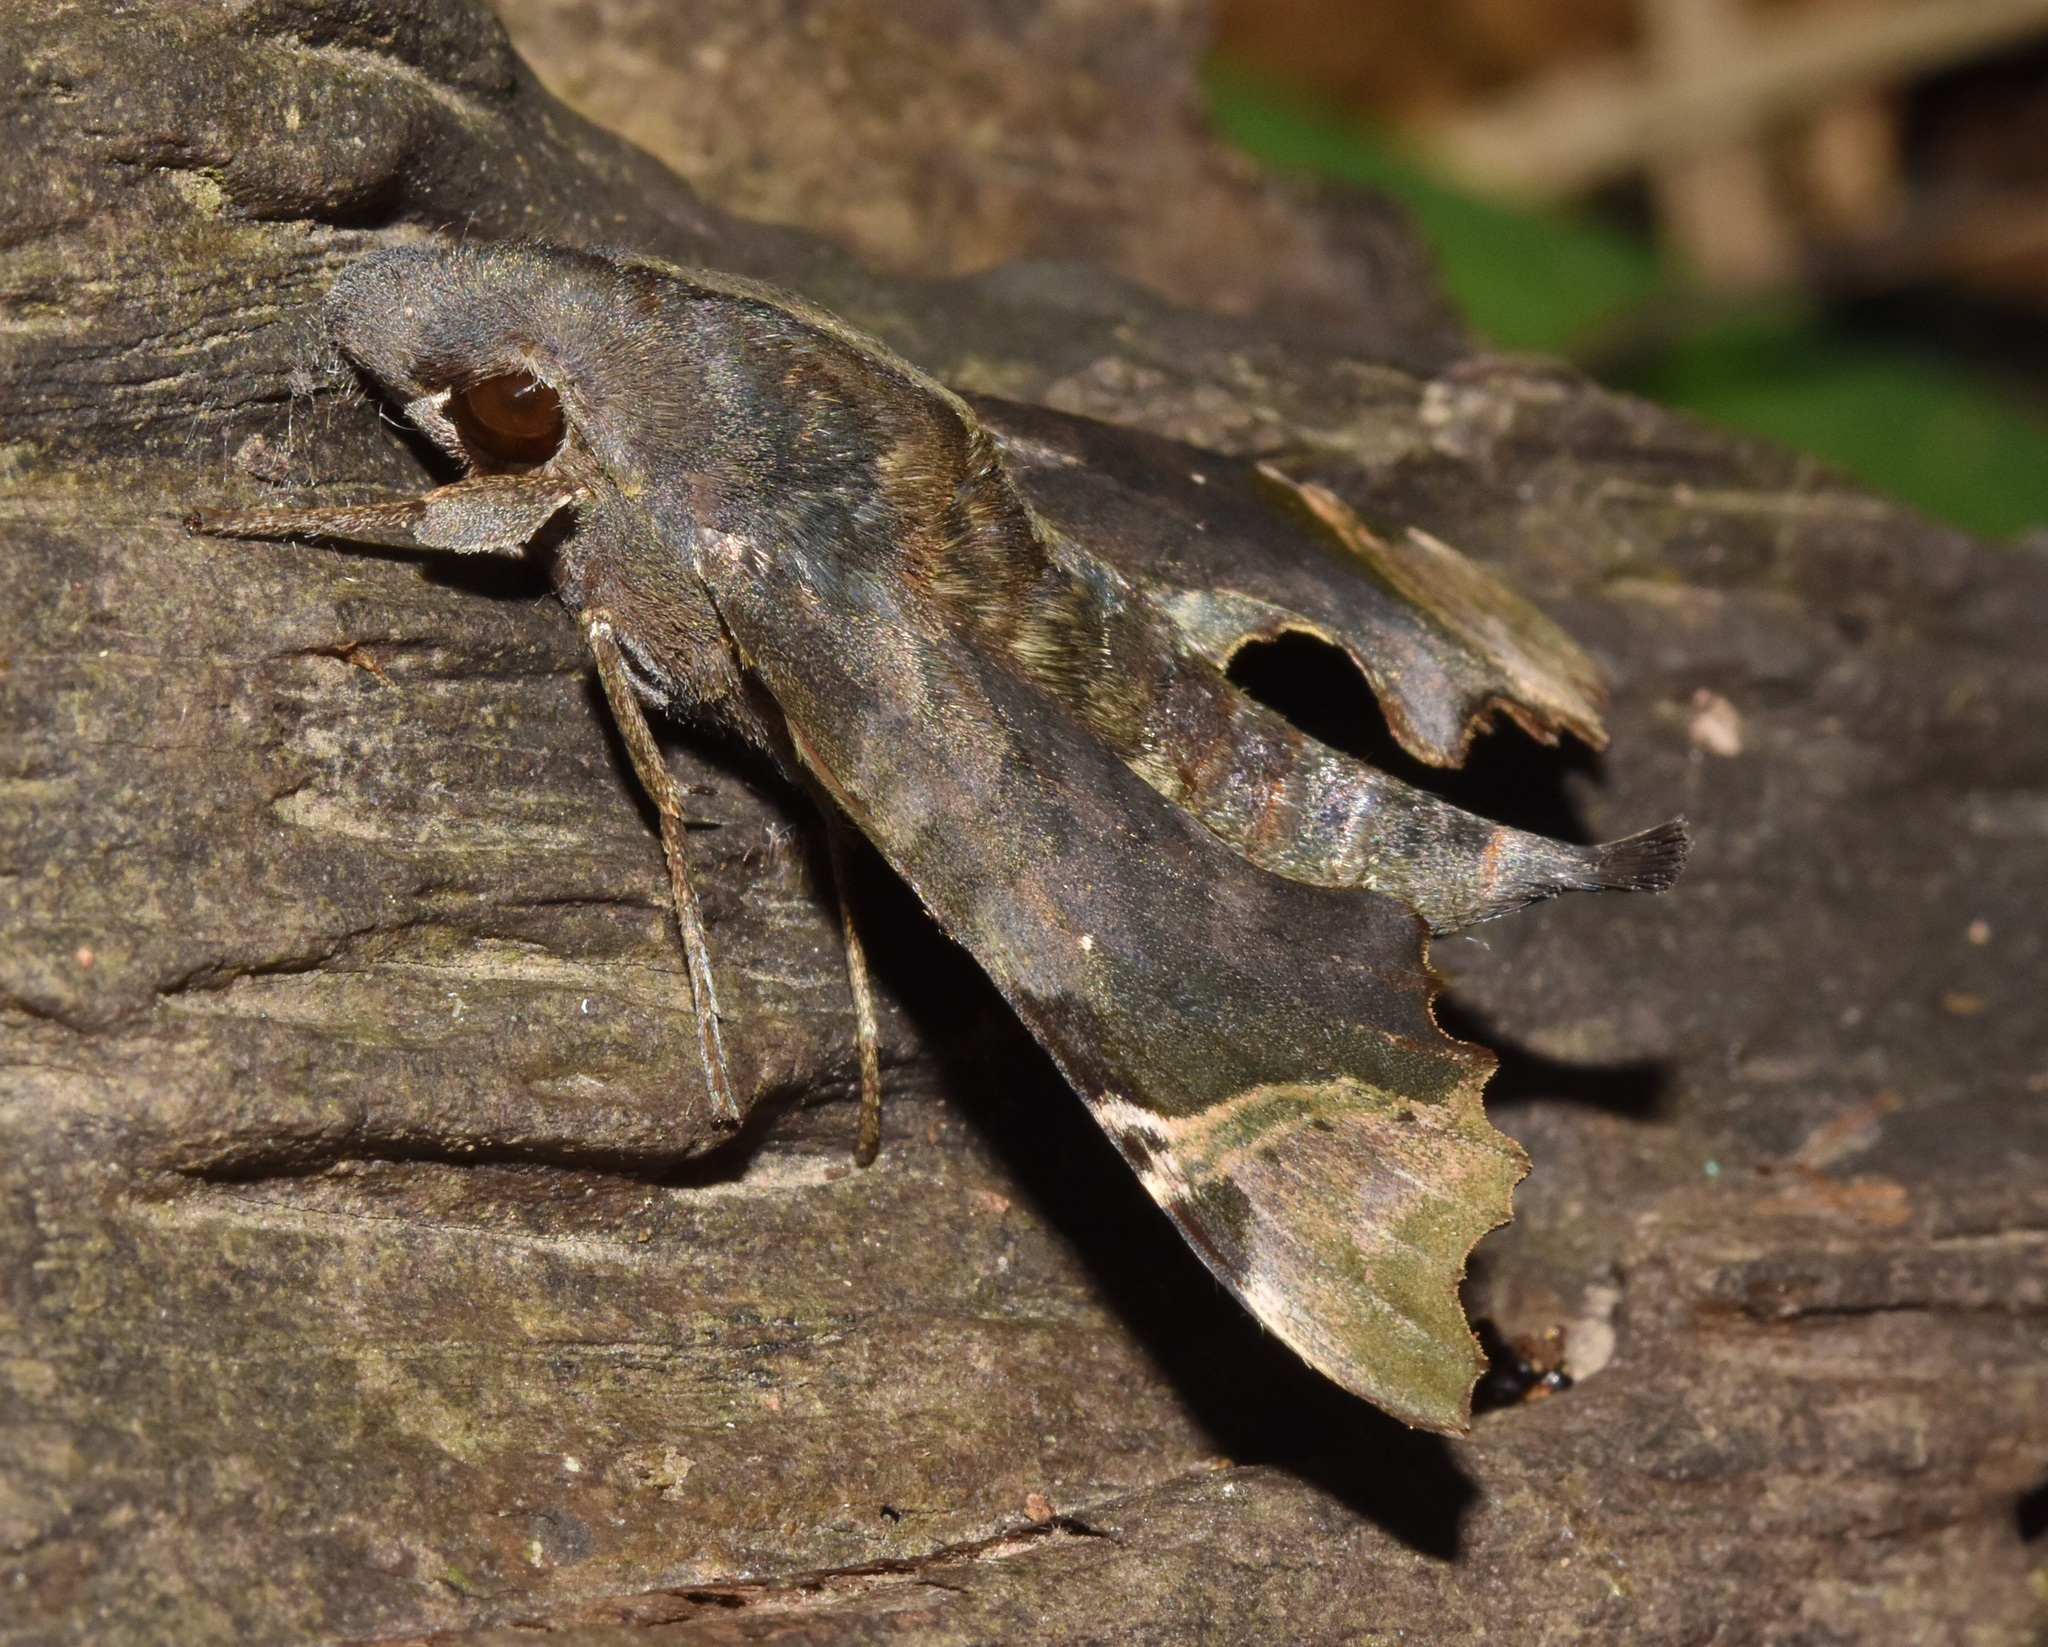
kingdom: Animalia
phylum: Arthropoda
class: Insecta
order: Lepidoptera
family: Sphingidae
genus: Temnora
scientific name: Temnora zantus
